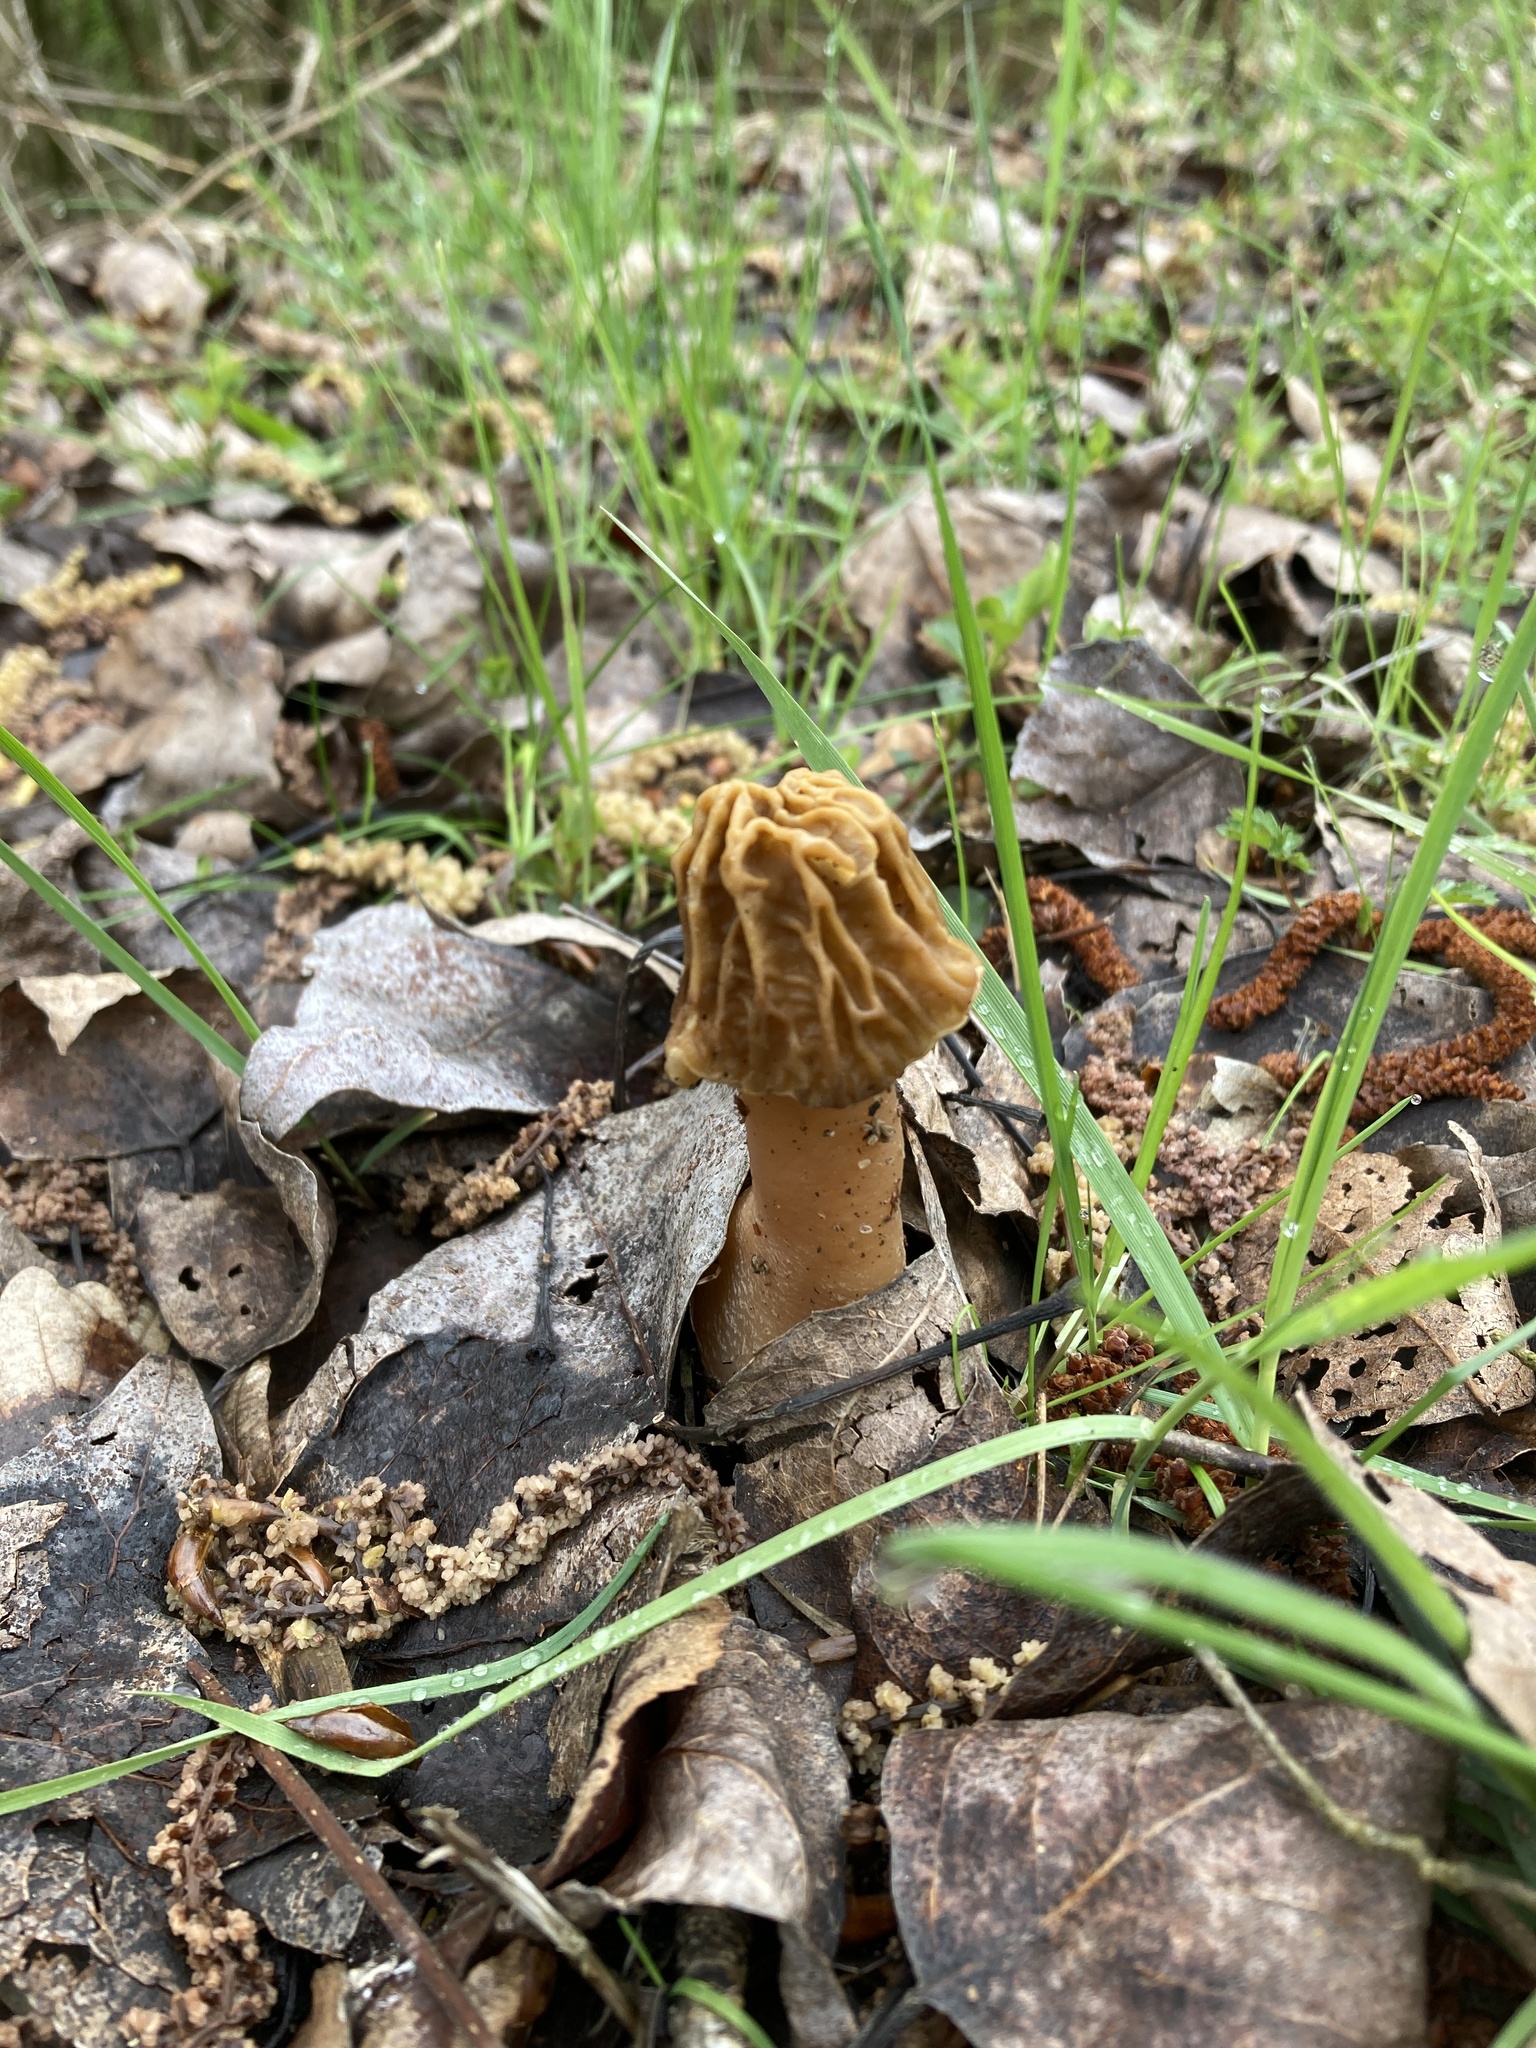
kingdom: Fungi
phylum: Ascomycota
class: Pezizomycetes
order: Pezizales
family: Morchellaceae
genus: Verpa
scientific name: Verpa bohemica
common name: Wrinkled thimble morel
